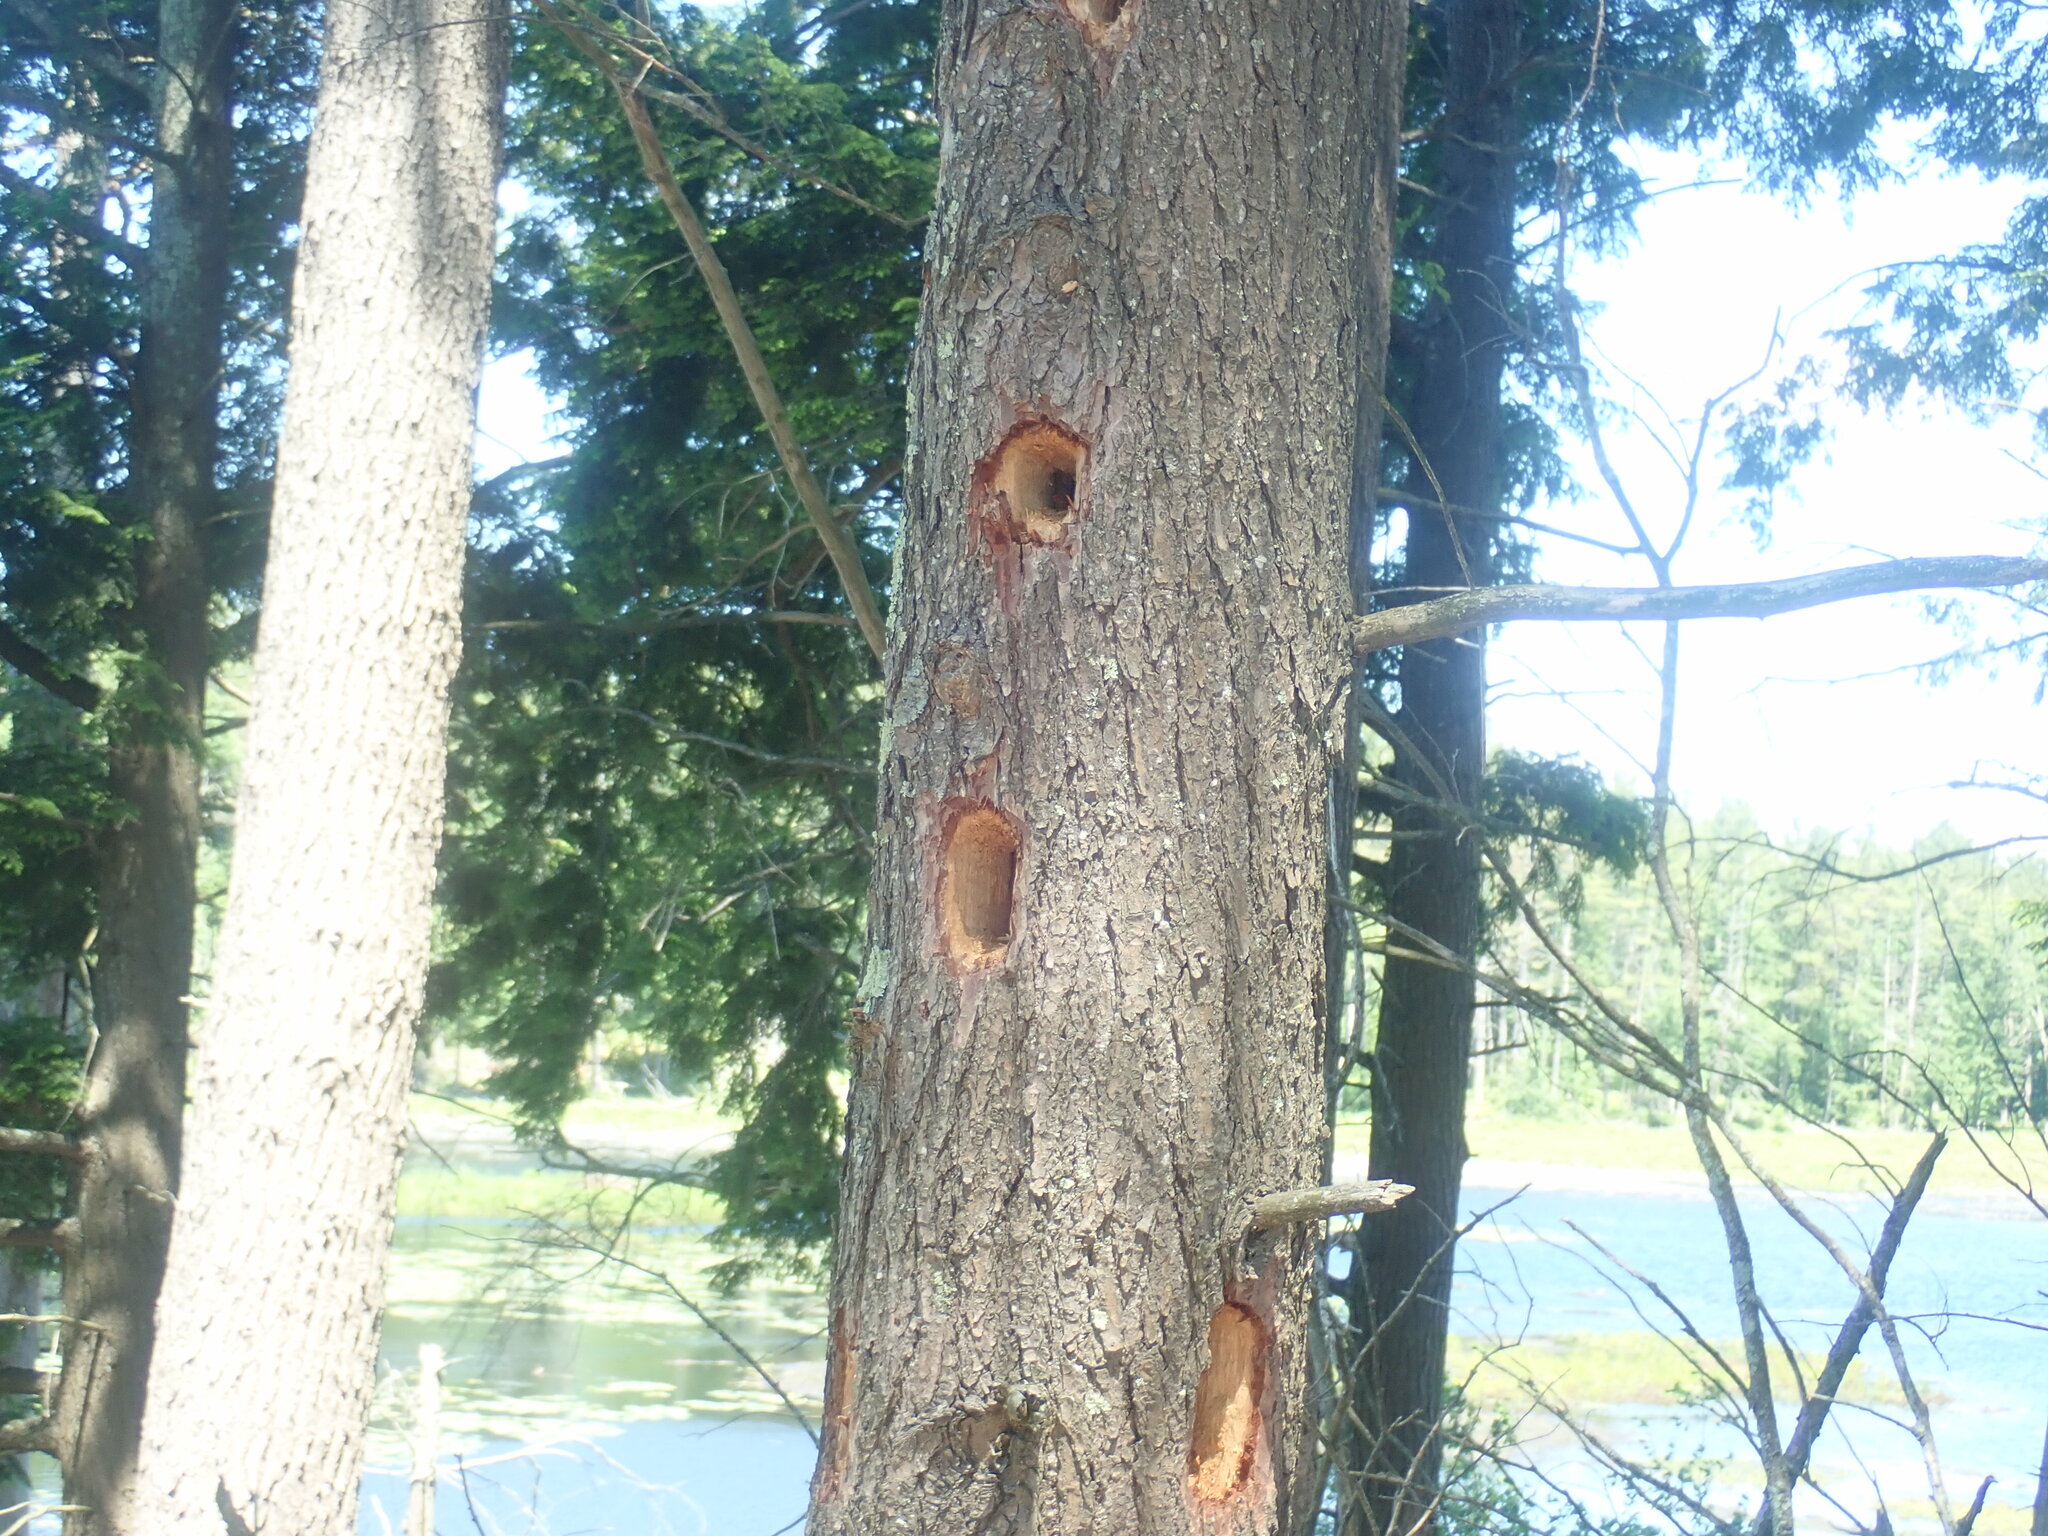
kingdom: Animalia
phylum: Chordata
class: Aves
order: Piciformes
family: Picidae
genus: Dryocopus
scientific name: Dryocopus pileatus
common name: Pileated woodpecker
